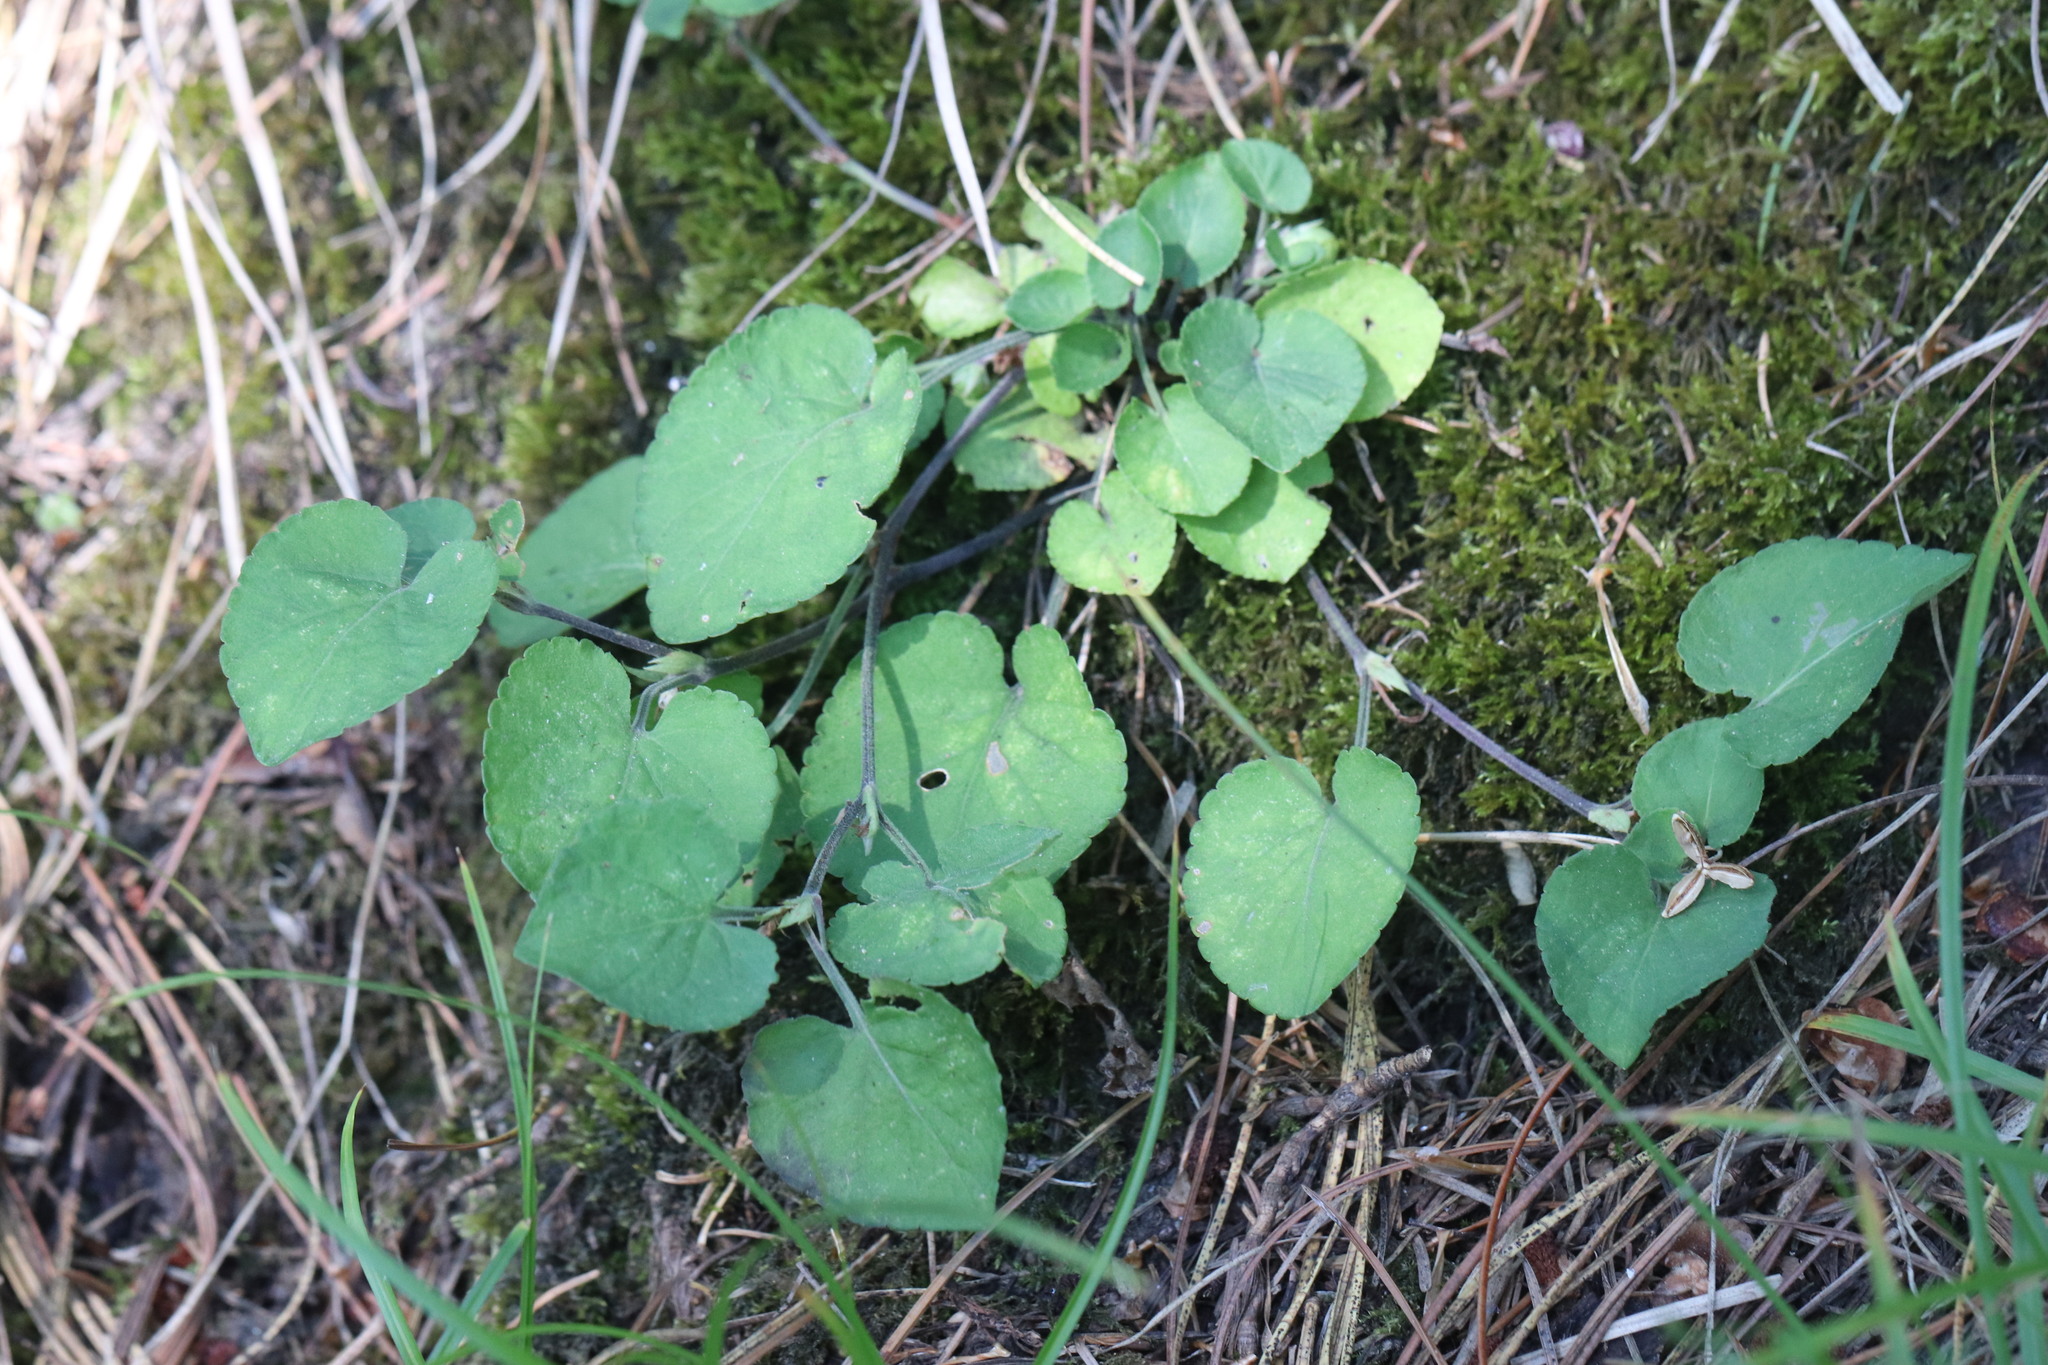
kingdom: Plantae
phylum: Tracheophyta
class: Magnoliopsida
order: Malpighiales
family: Violaceae
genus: Viola
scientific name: Viola rupestris
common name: Teesdale violet
